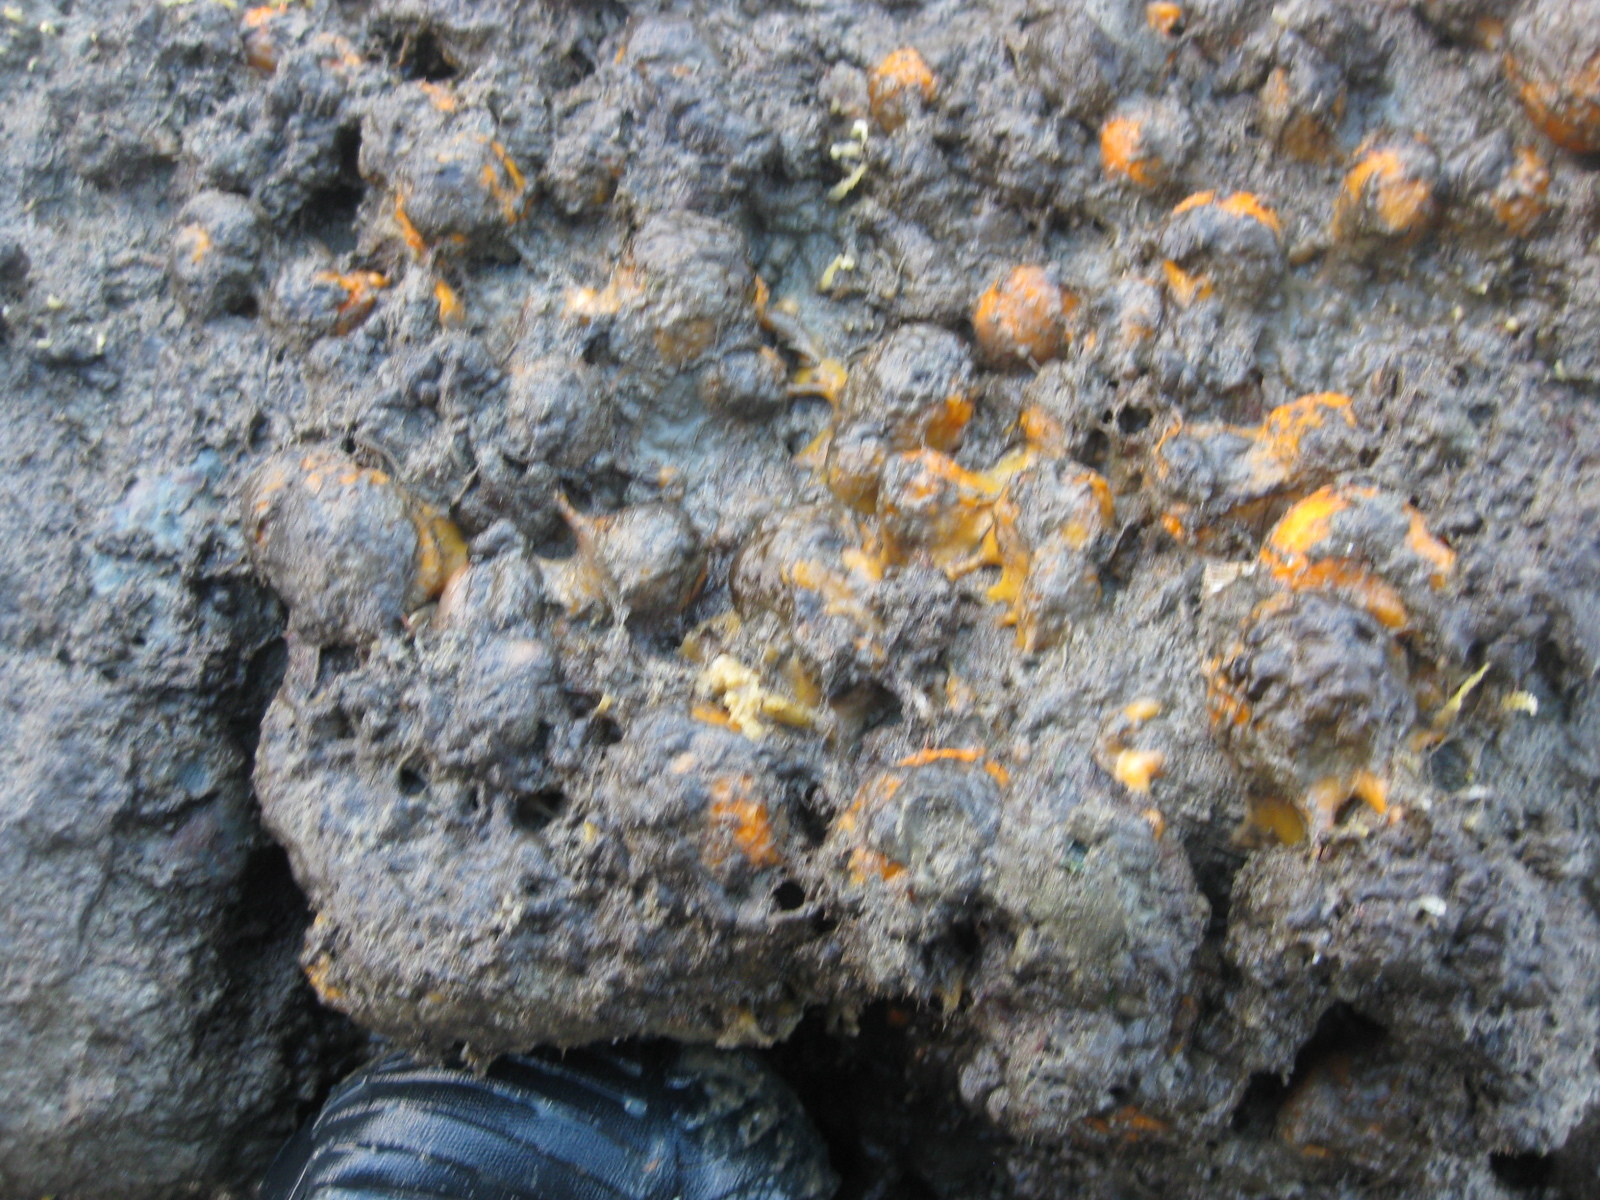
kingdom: Animalia
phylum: Porifera
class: Demospongiae
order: Tethyida
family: Tethyidae
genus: Tethya
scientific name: Tethya burtoni
